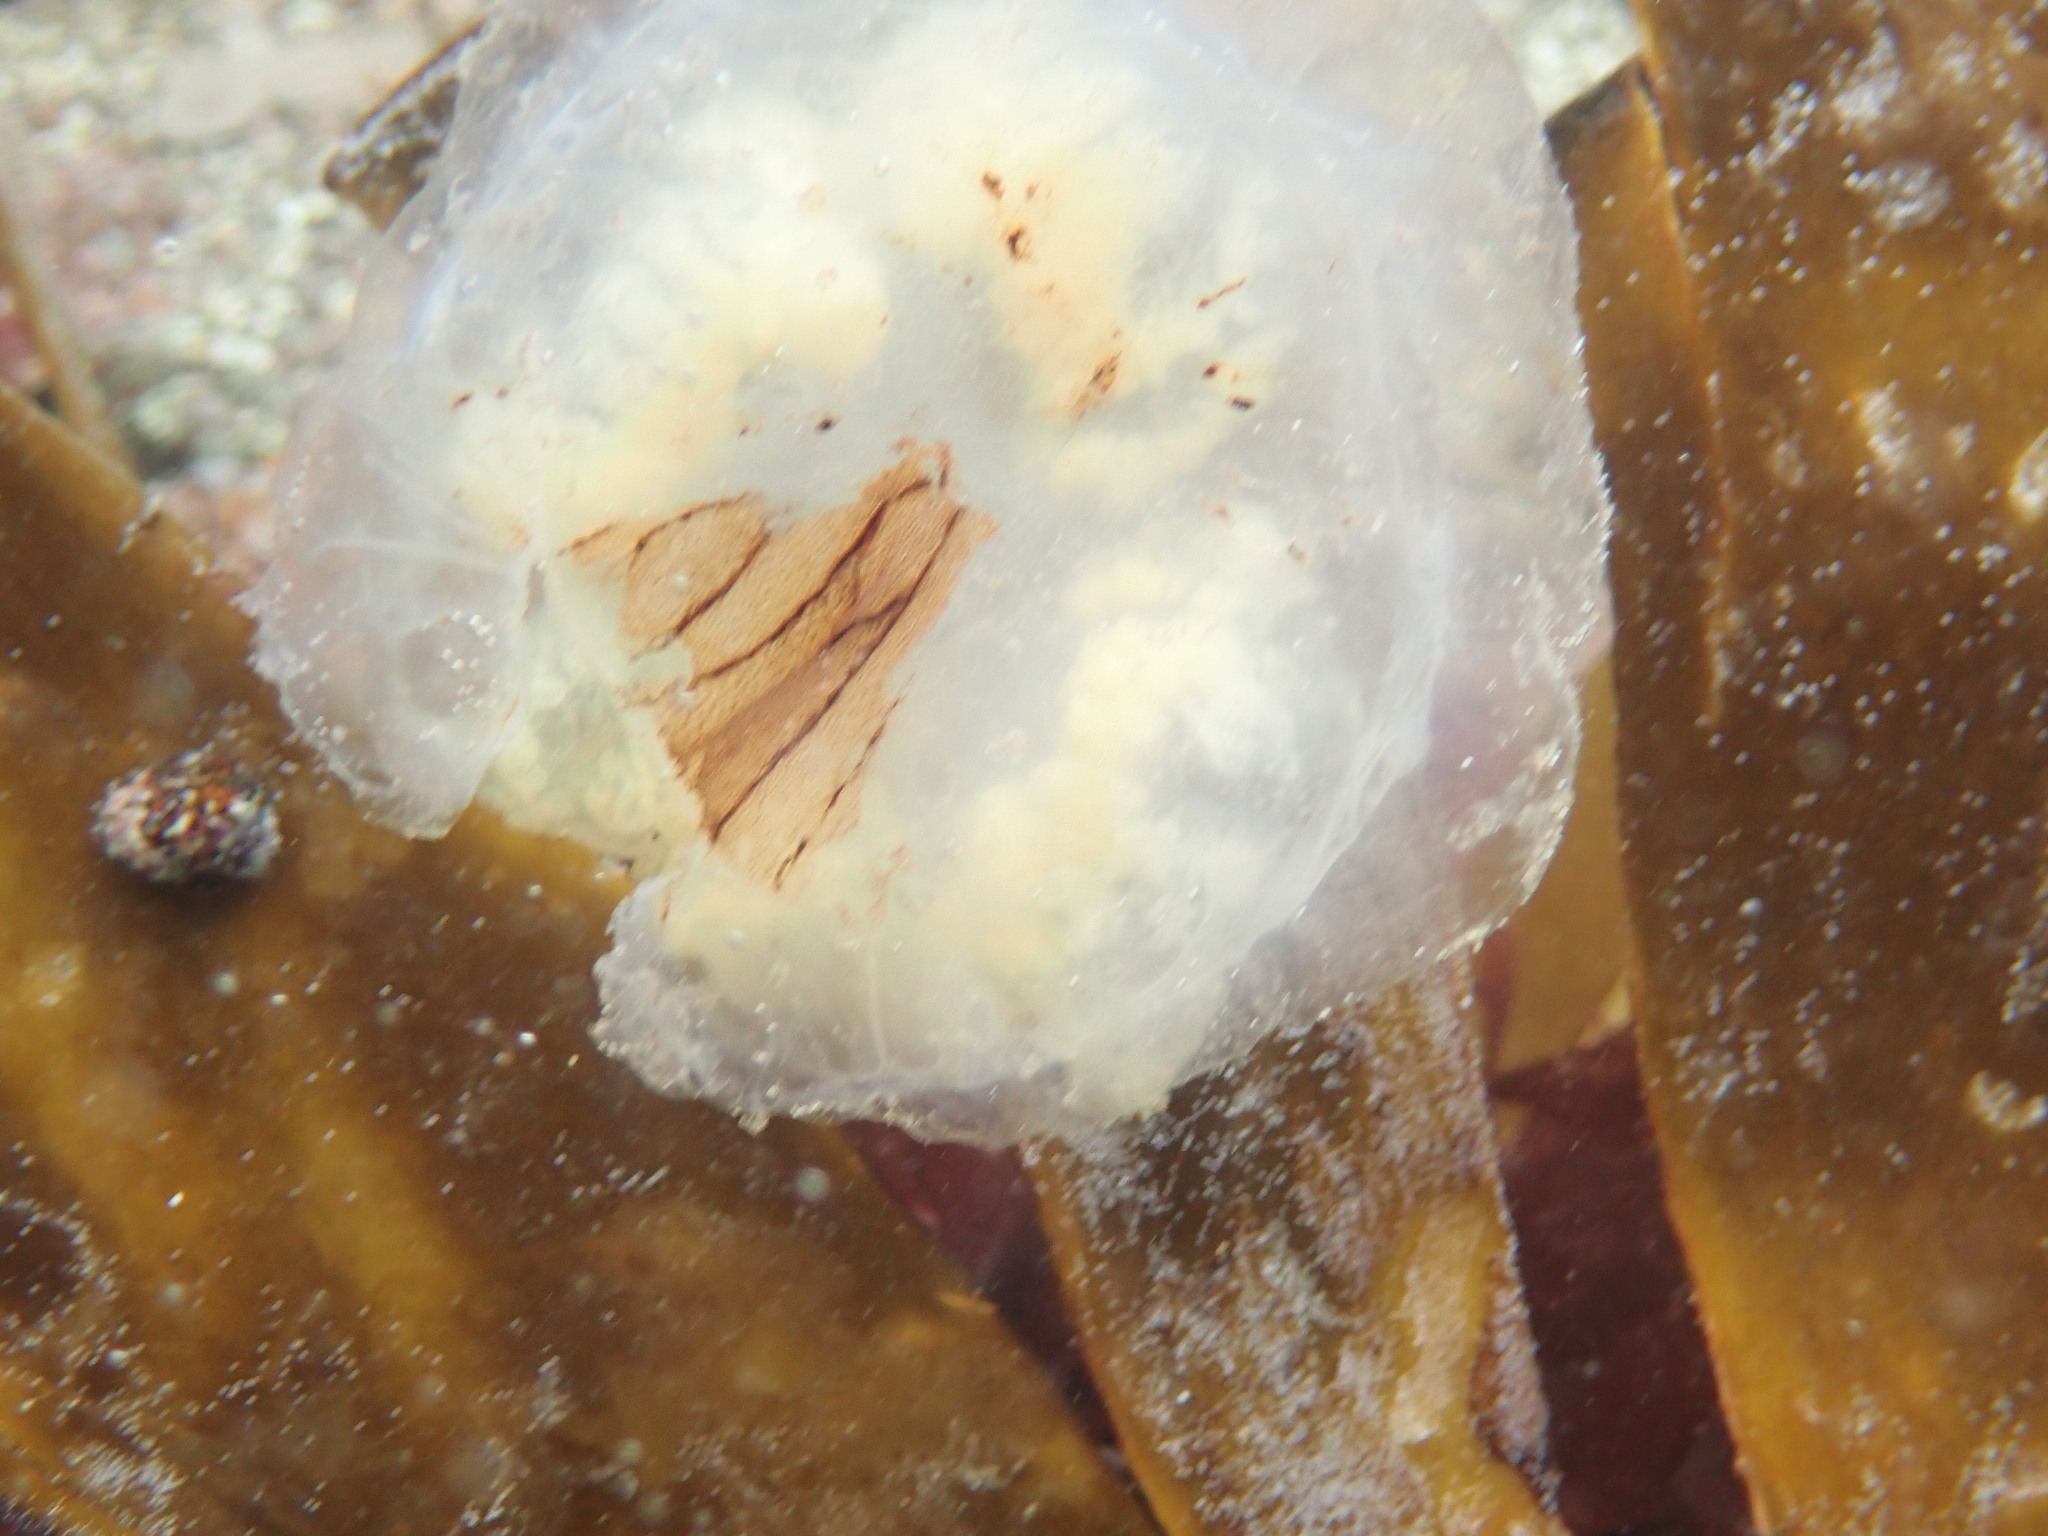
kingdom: Animalia
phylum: Cnidaria
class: Scyphozoa
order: Semaeostomeae
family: Pelagiidae
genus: Chrysaora
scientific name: Chrysaora hysoscella
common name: Compass jellyfish
